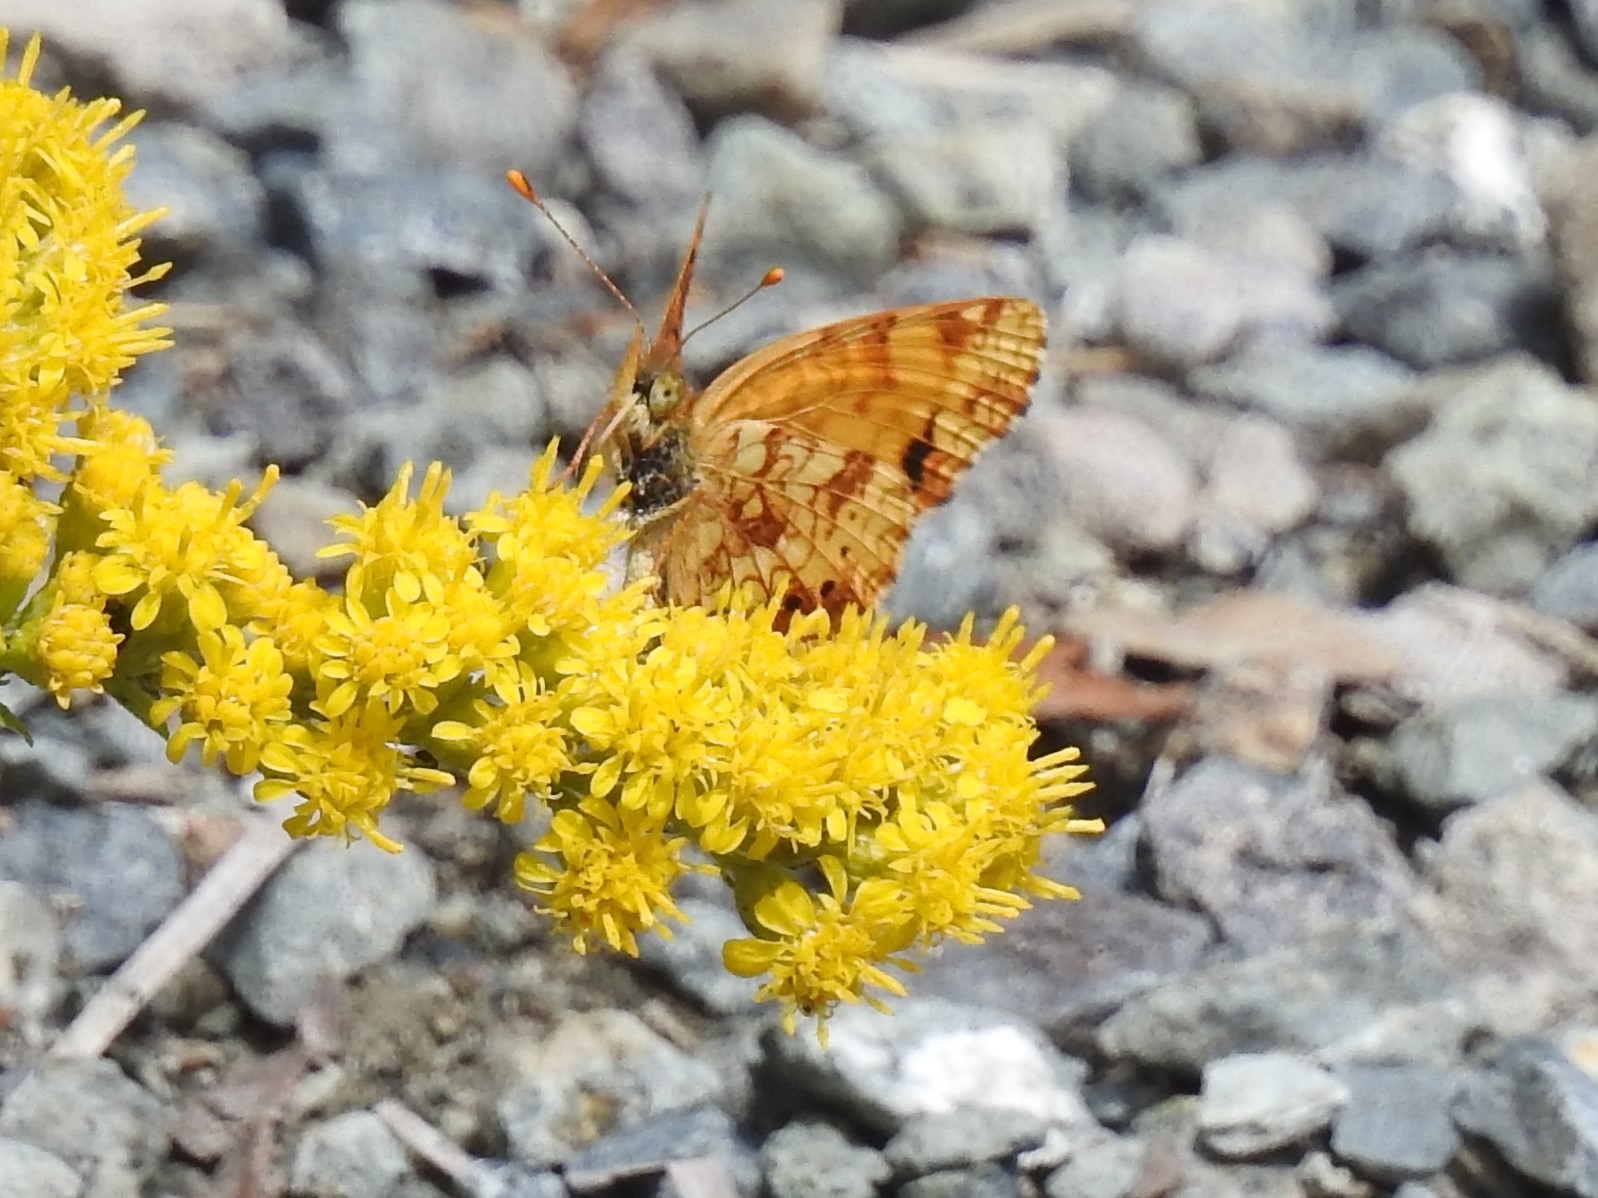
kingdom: Animalia
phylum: Arthropoda
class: Insecta
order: Lepidoptera
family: Nymphalidae
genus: Eresia
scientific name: Eresia aveyrona
